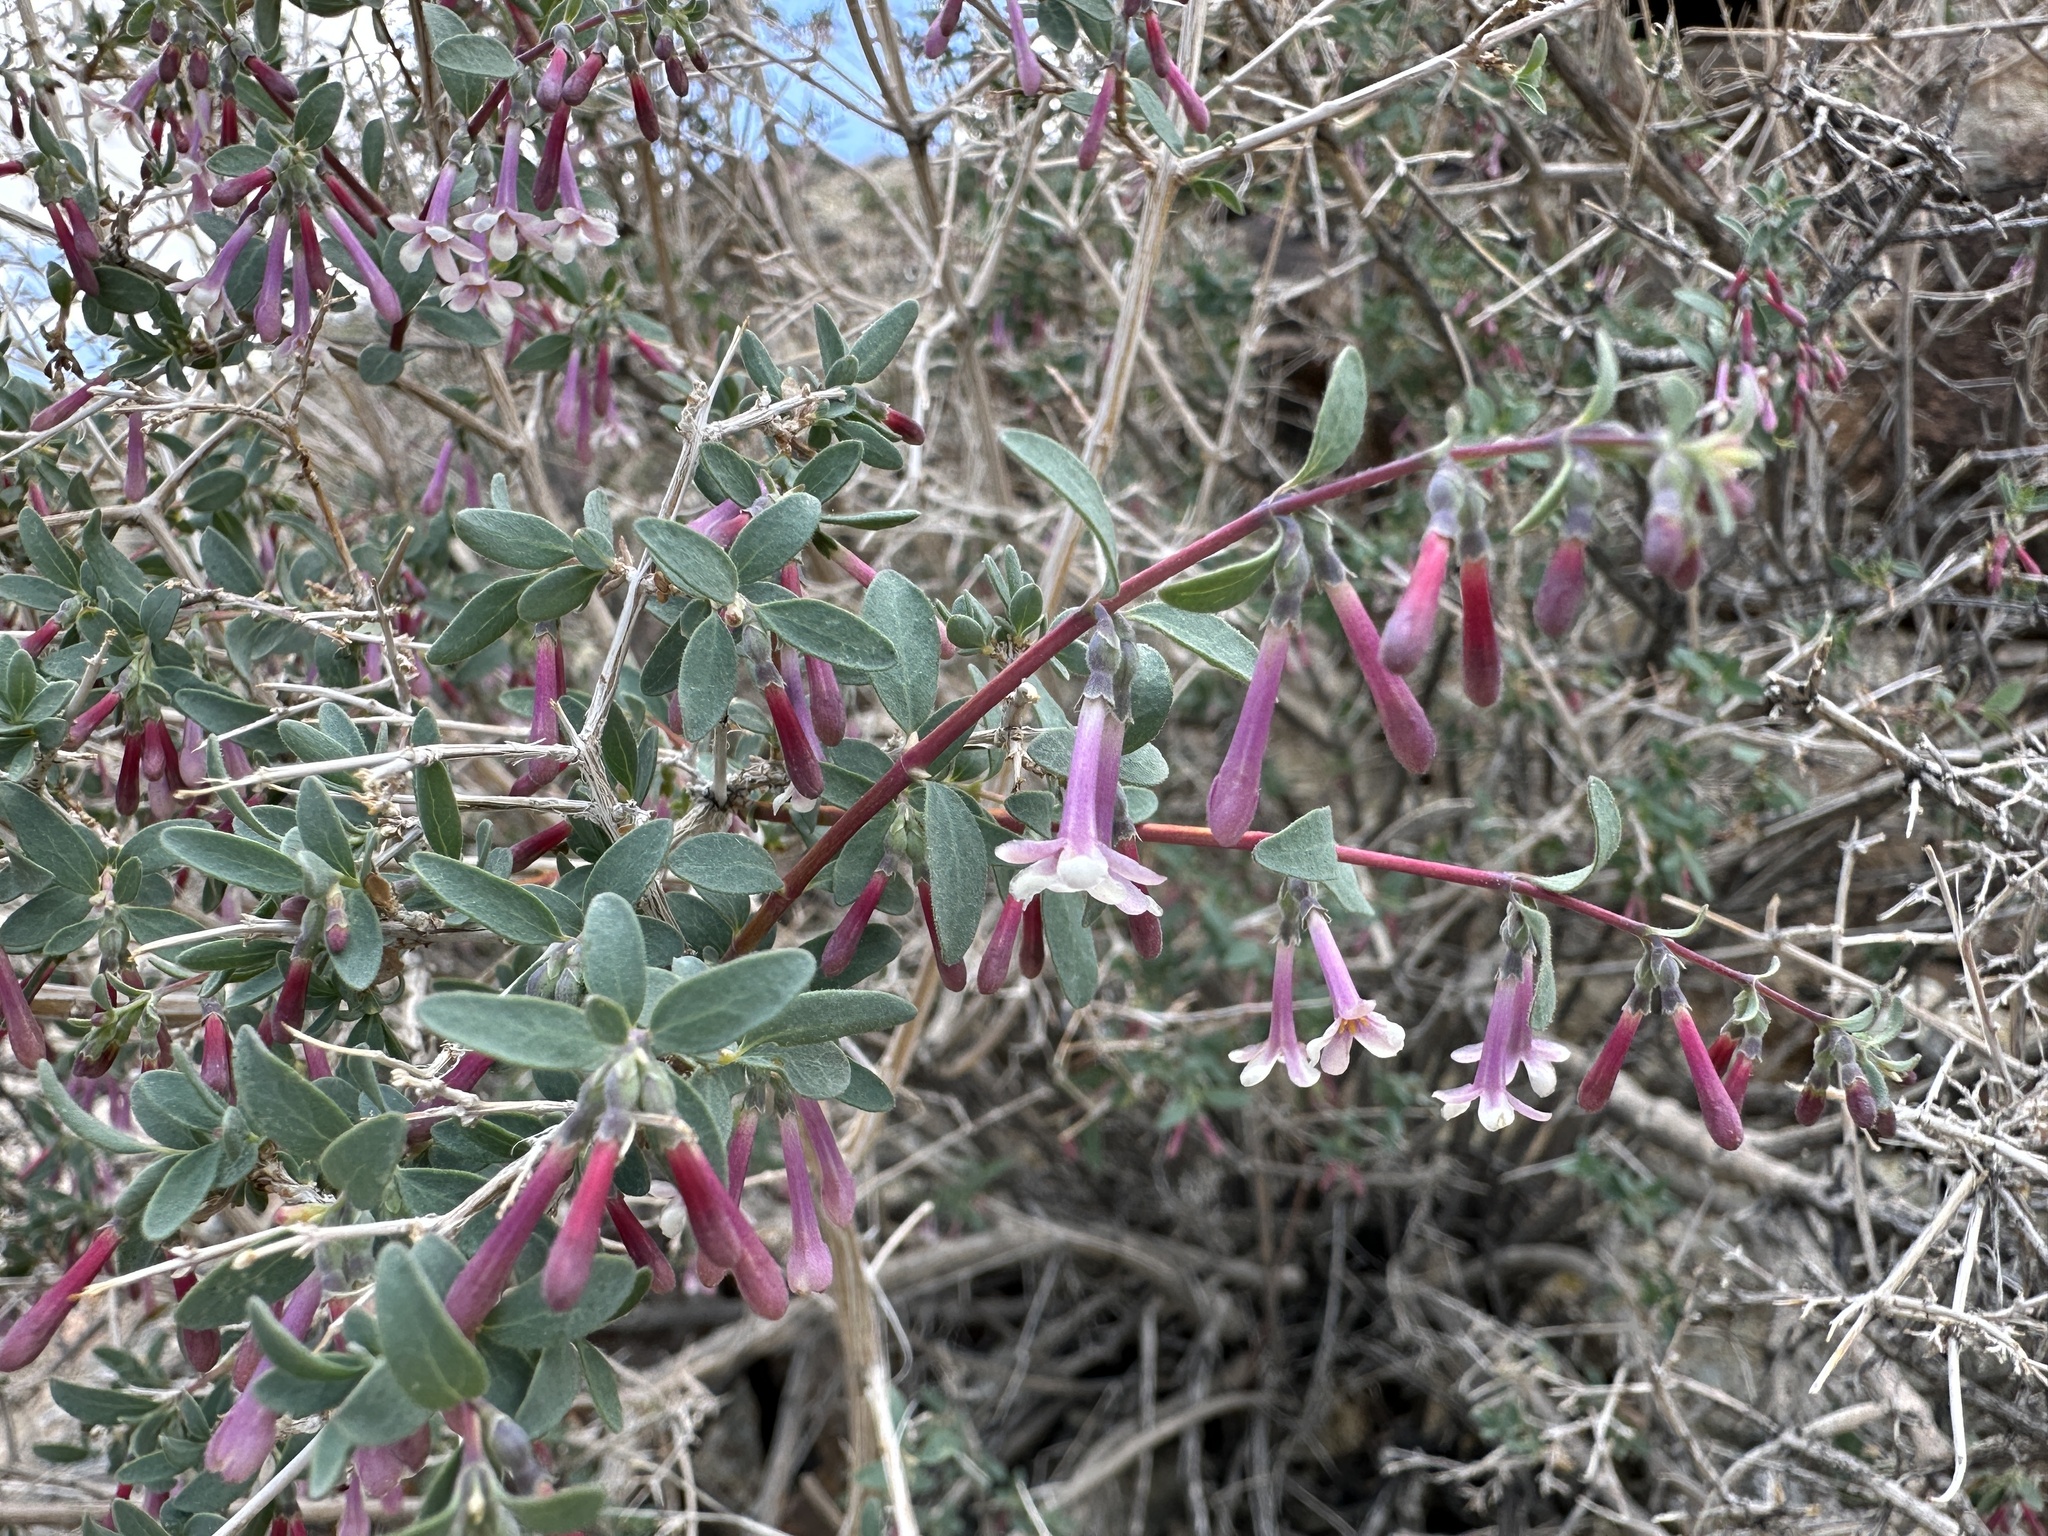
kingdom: Plantae
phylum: Tracheophyta
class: Magnoliopsida
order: Dipsacales
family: Caprifoliaceae
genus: Symphoricarpos
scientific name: Symphoricarpos longiflorus
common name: Fragrant snowberry
